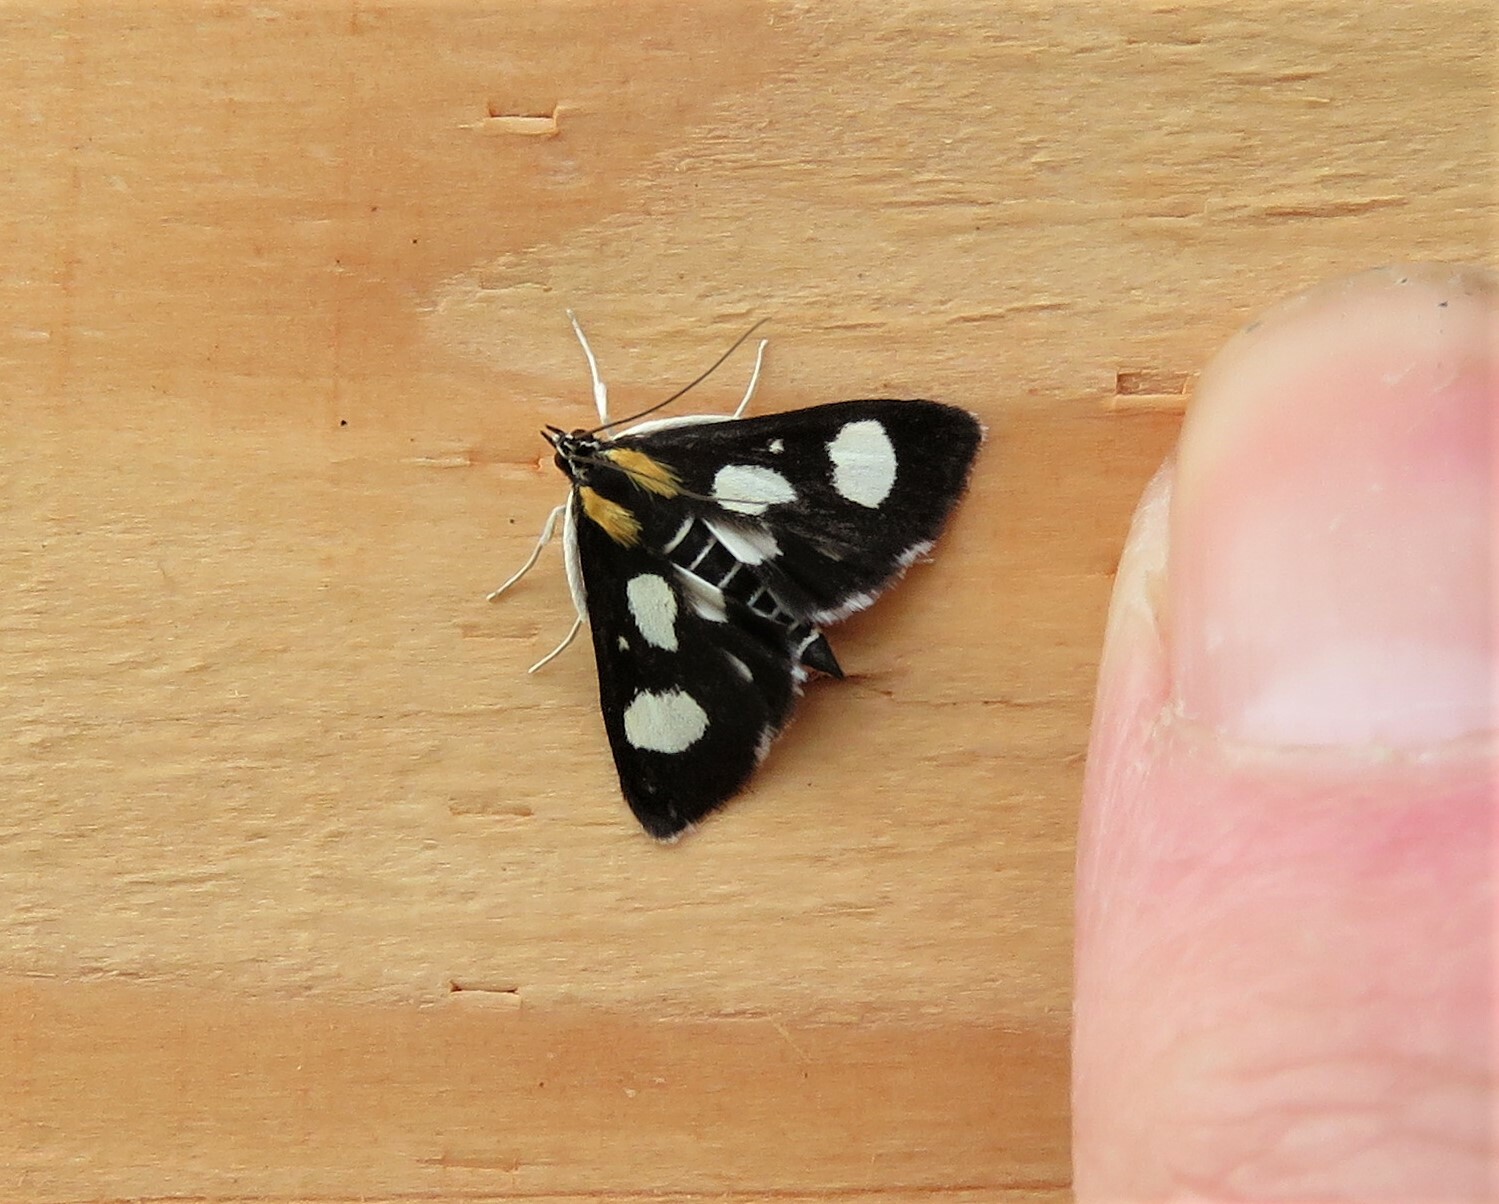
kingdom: Animalia
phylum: Arthropoda
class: Insecta
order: Lepidoptera
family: Crambidae
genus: Anania
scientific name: Anania funebris
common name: White-spotted sable moth
